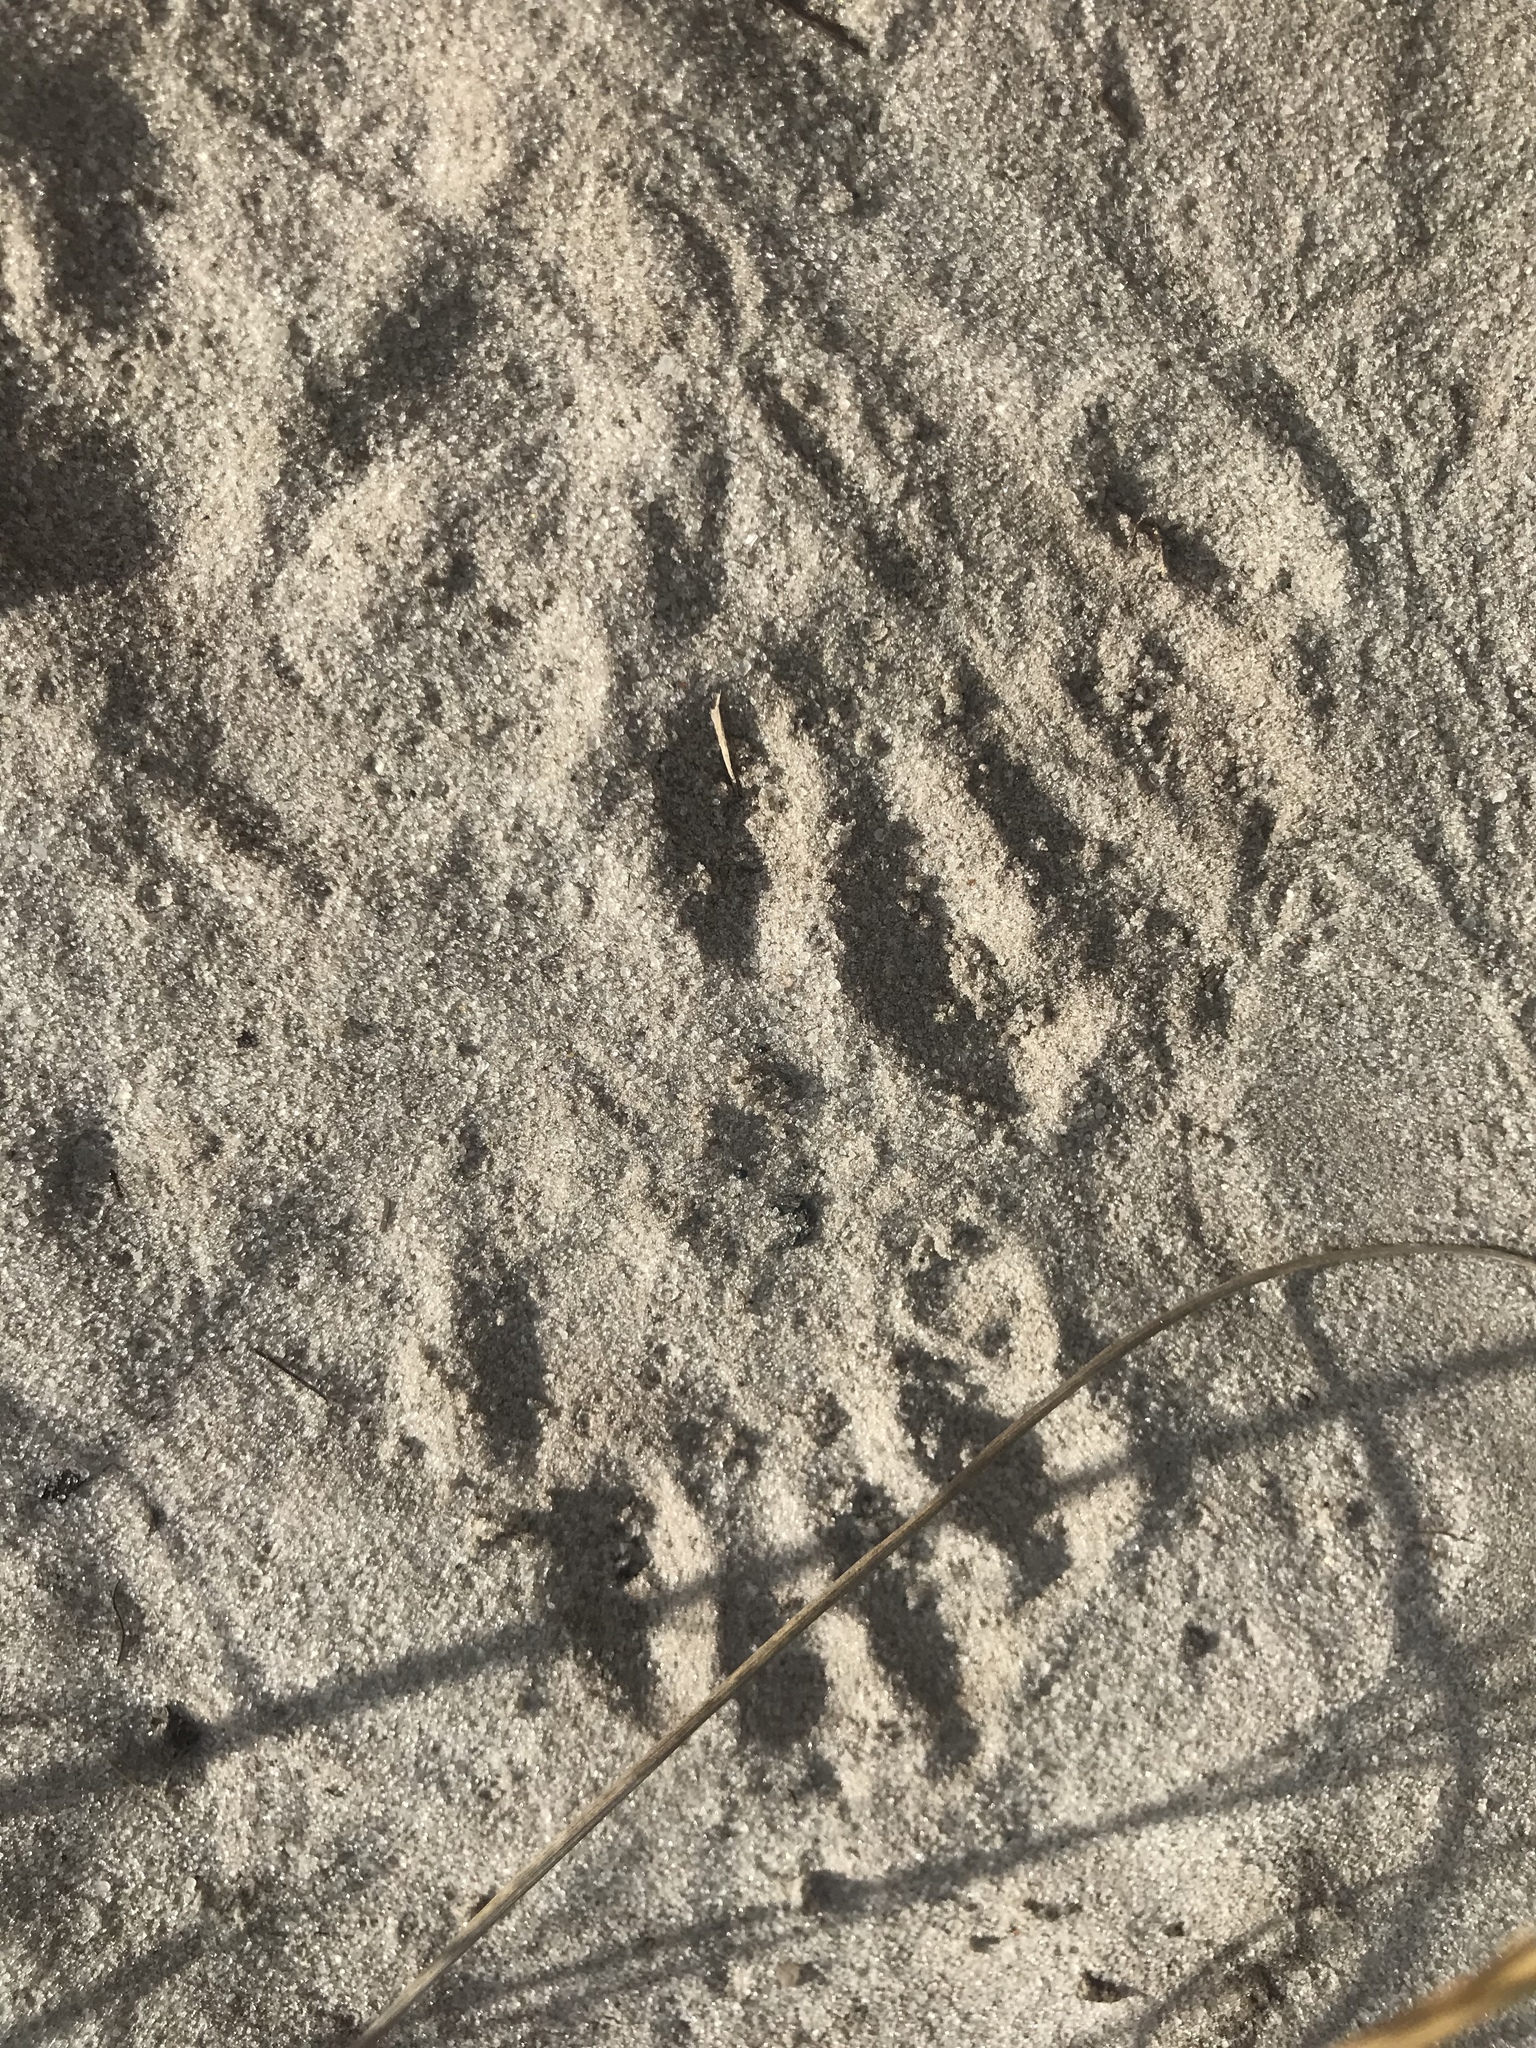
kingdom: Animalia
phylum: Chordata
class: Mammalia
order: Carnivora
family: Procyonidae
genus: Procyon
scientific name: Procyon lotor
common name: Raccoon
